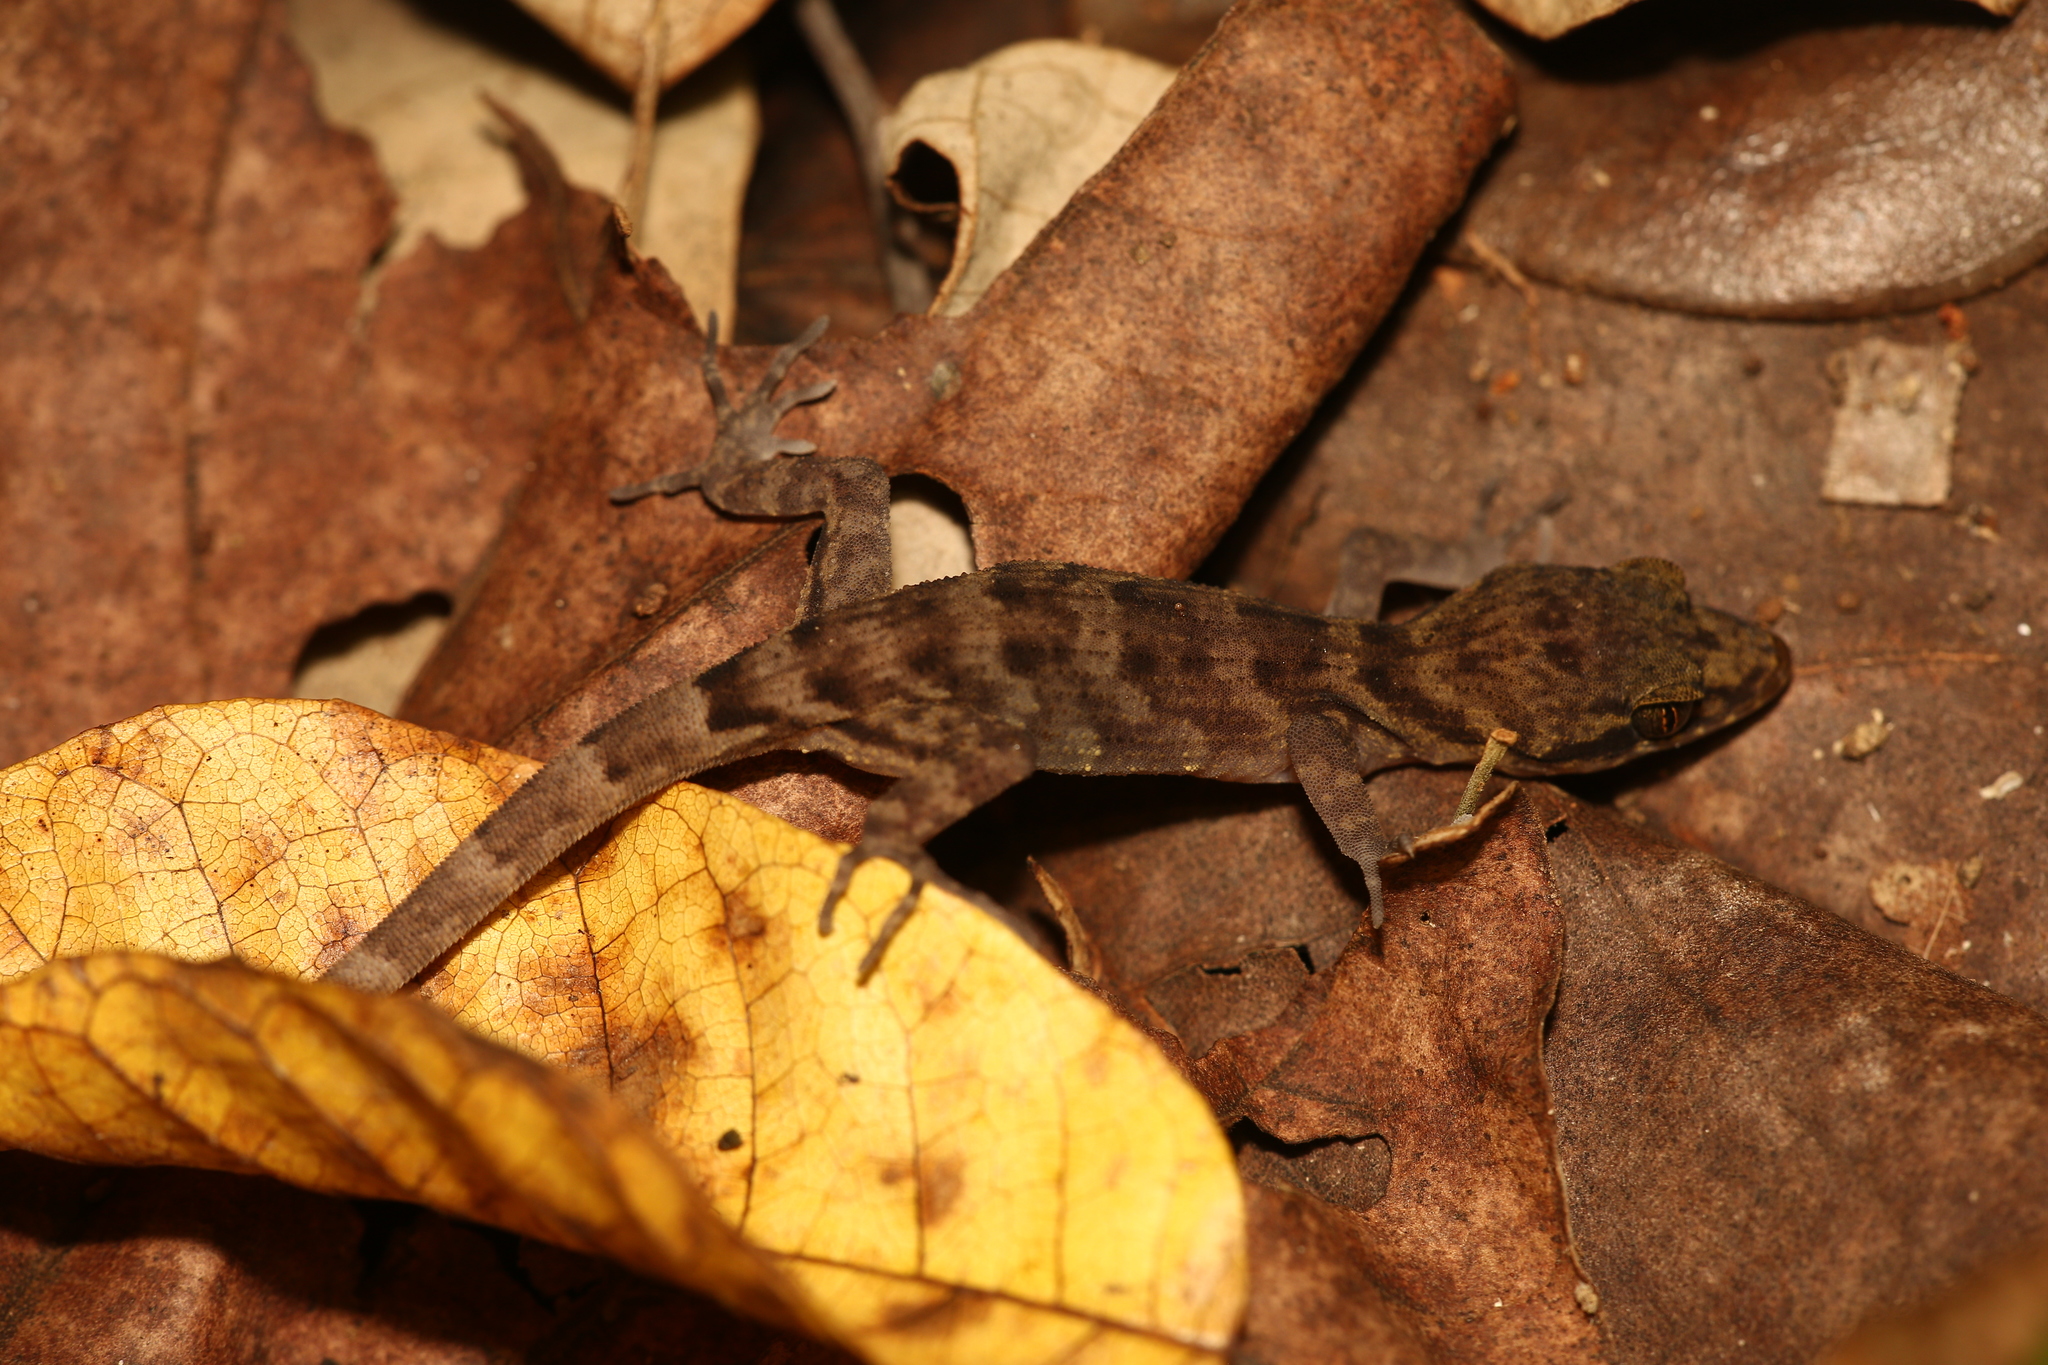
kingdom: Animalia
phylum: Chordata
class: Squamata
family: Gekkonidae
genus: Nactus
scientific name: Nactus pelagicus
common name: Pelagic gecko
